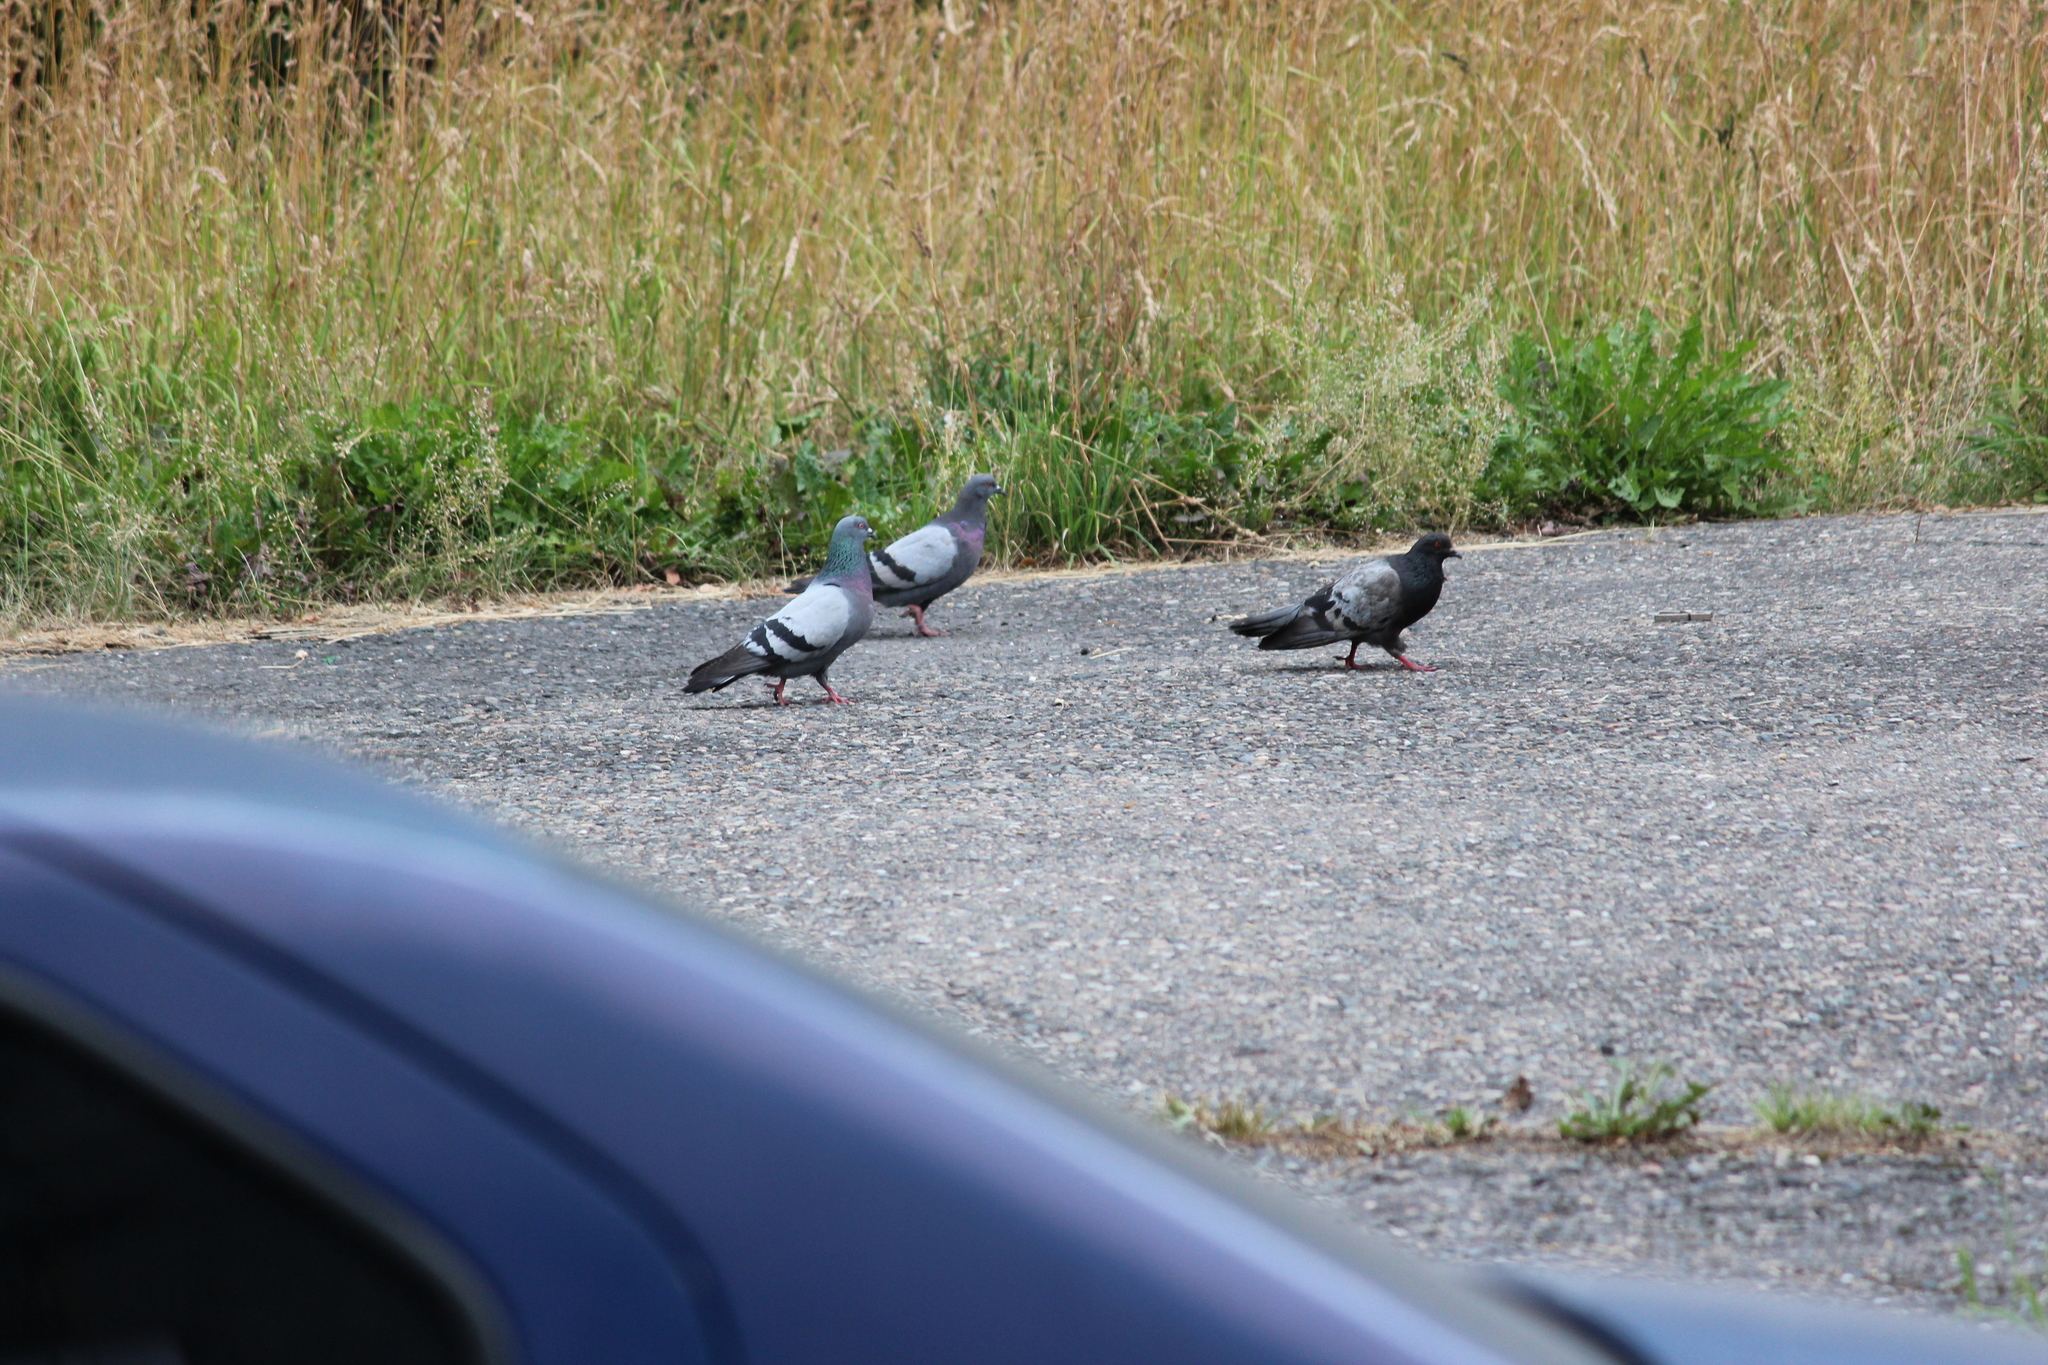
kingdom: Animalia
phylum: Chordata
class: Aves
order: Columbiformes
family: Columbidae
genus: Columba
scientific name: Columba livia
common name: Rock pigeon
